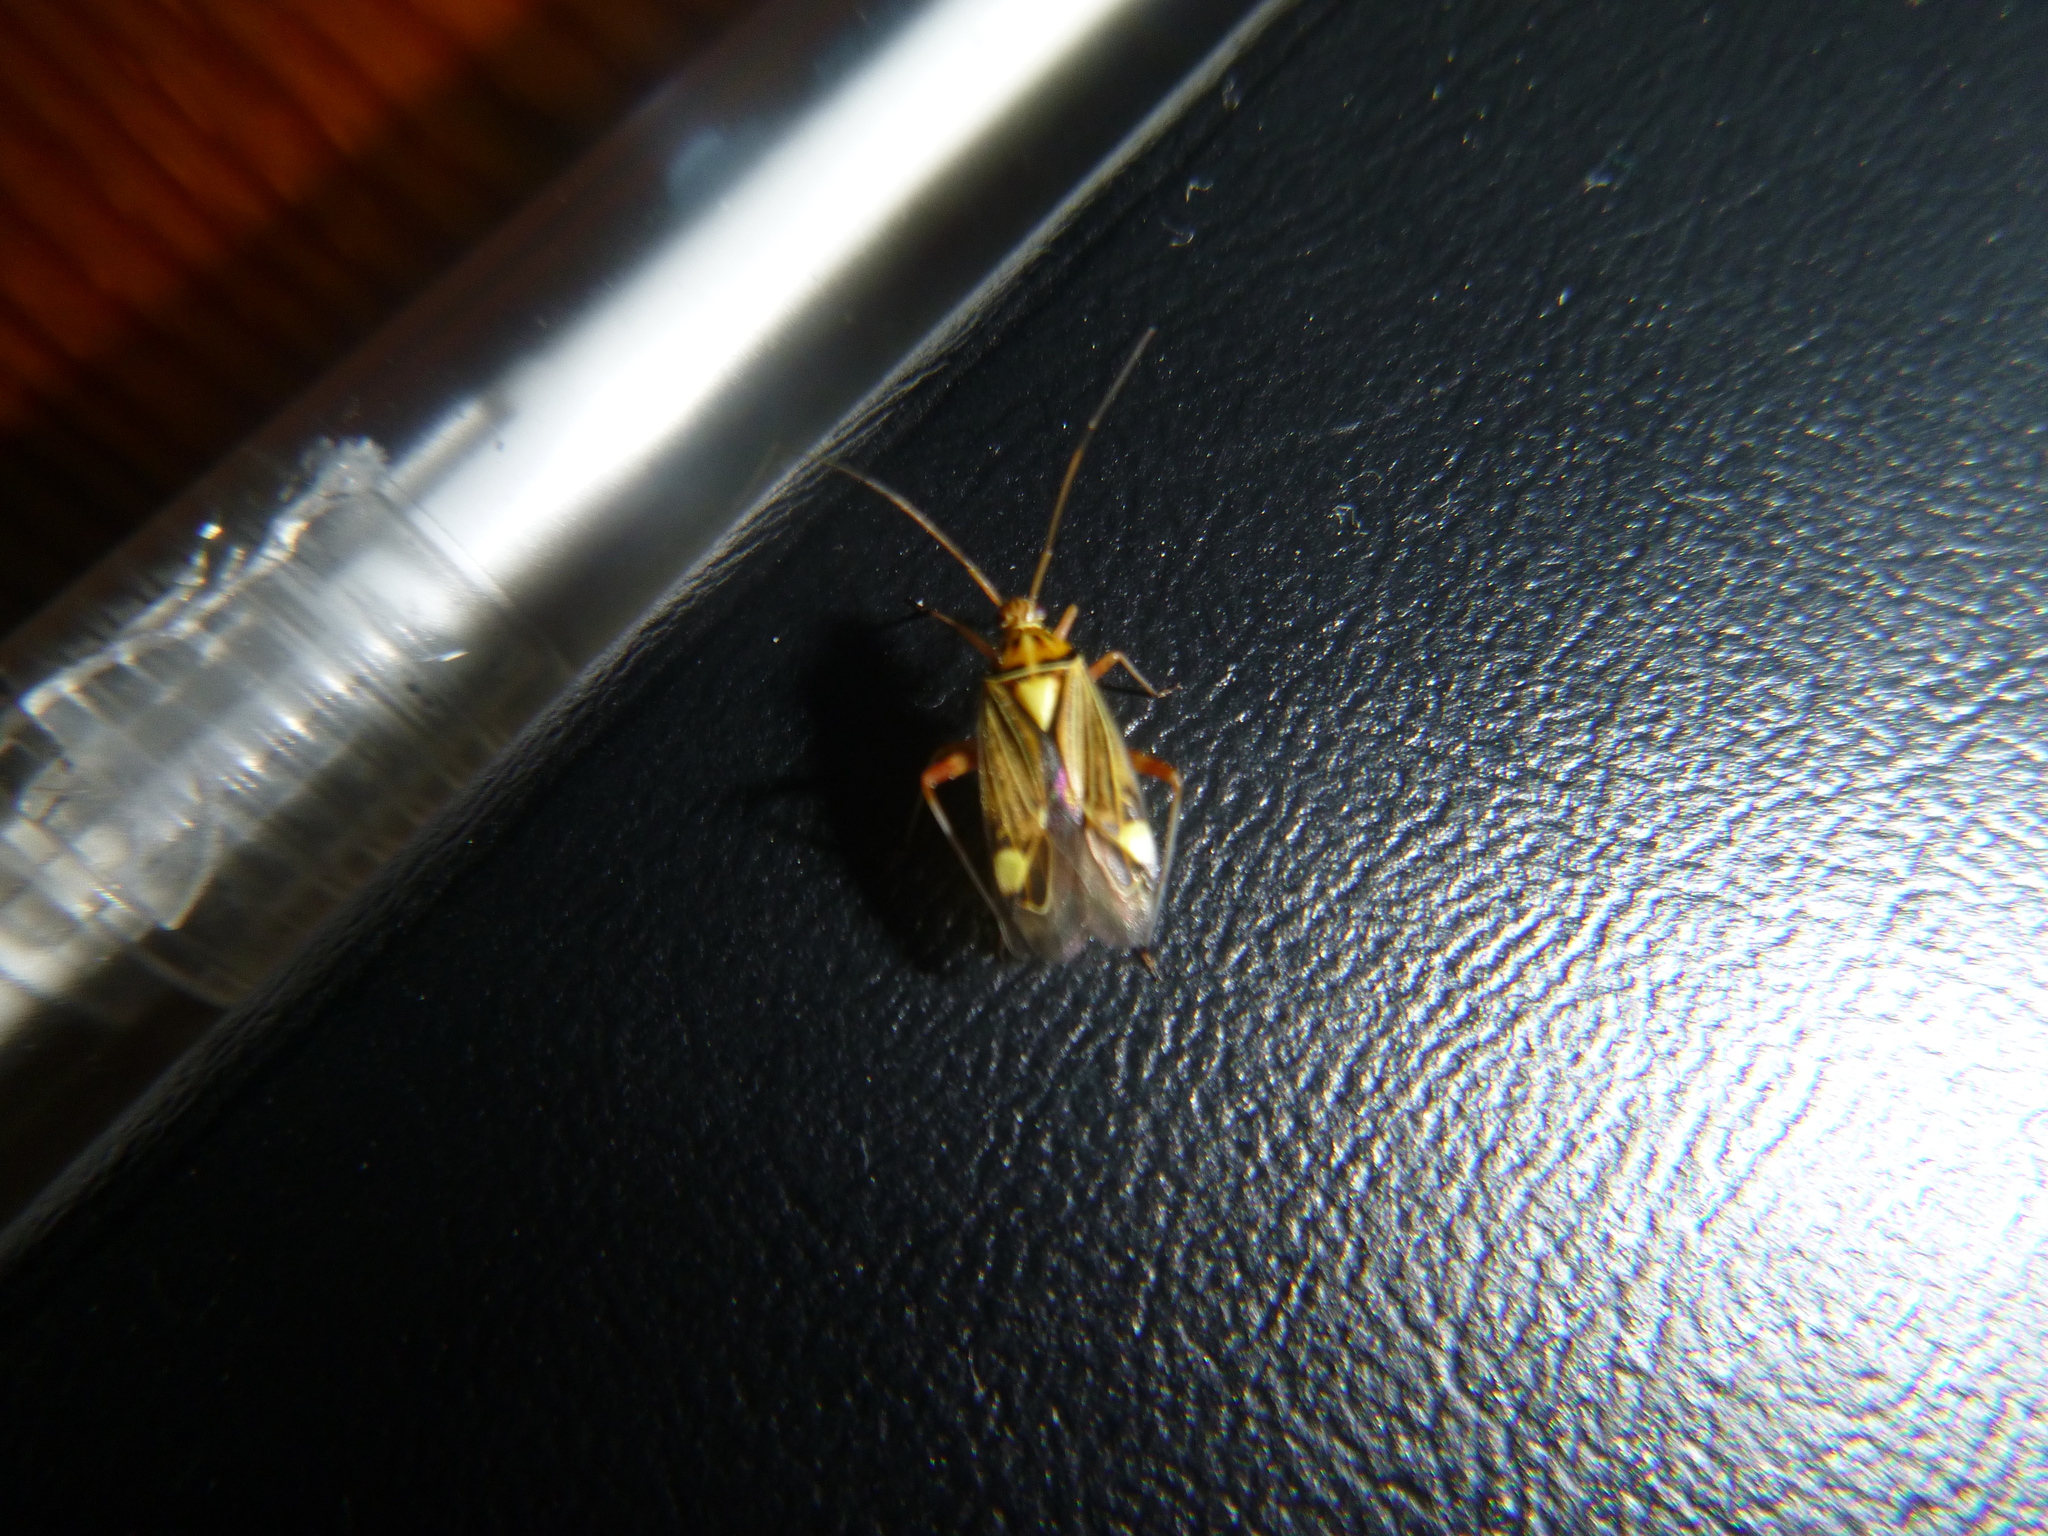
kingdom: Animalia
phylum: Arthropoda
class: Insecta
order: Hemiptera
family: Miridae
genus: Rhabdomiris
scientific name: Rhabdomiris striatellus
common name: Plant bug
